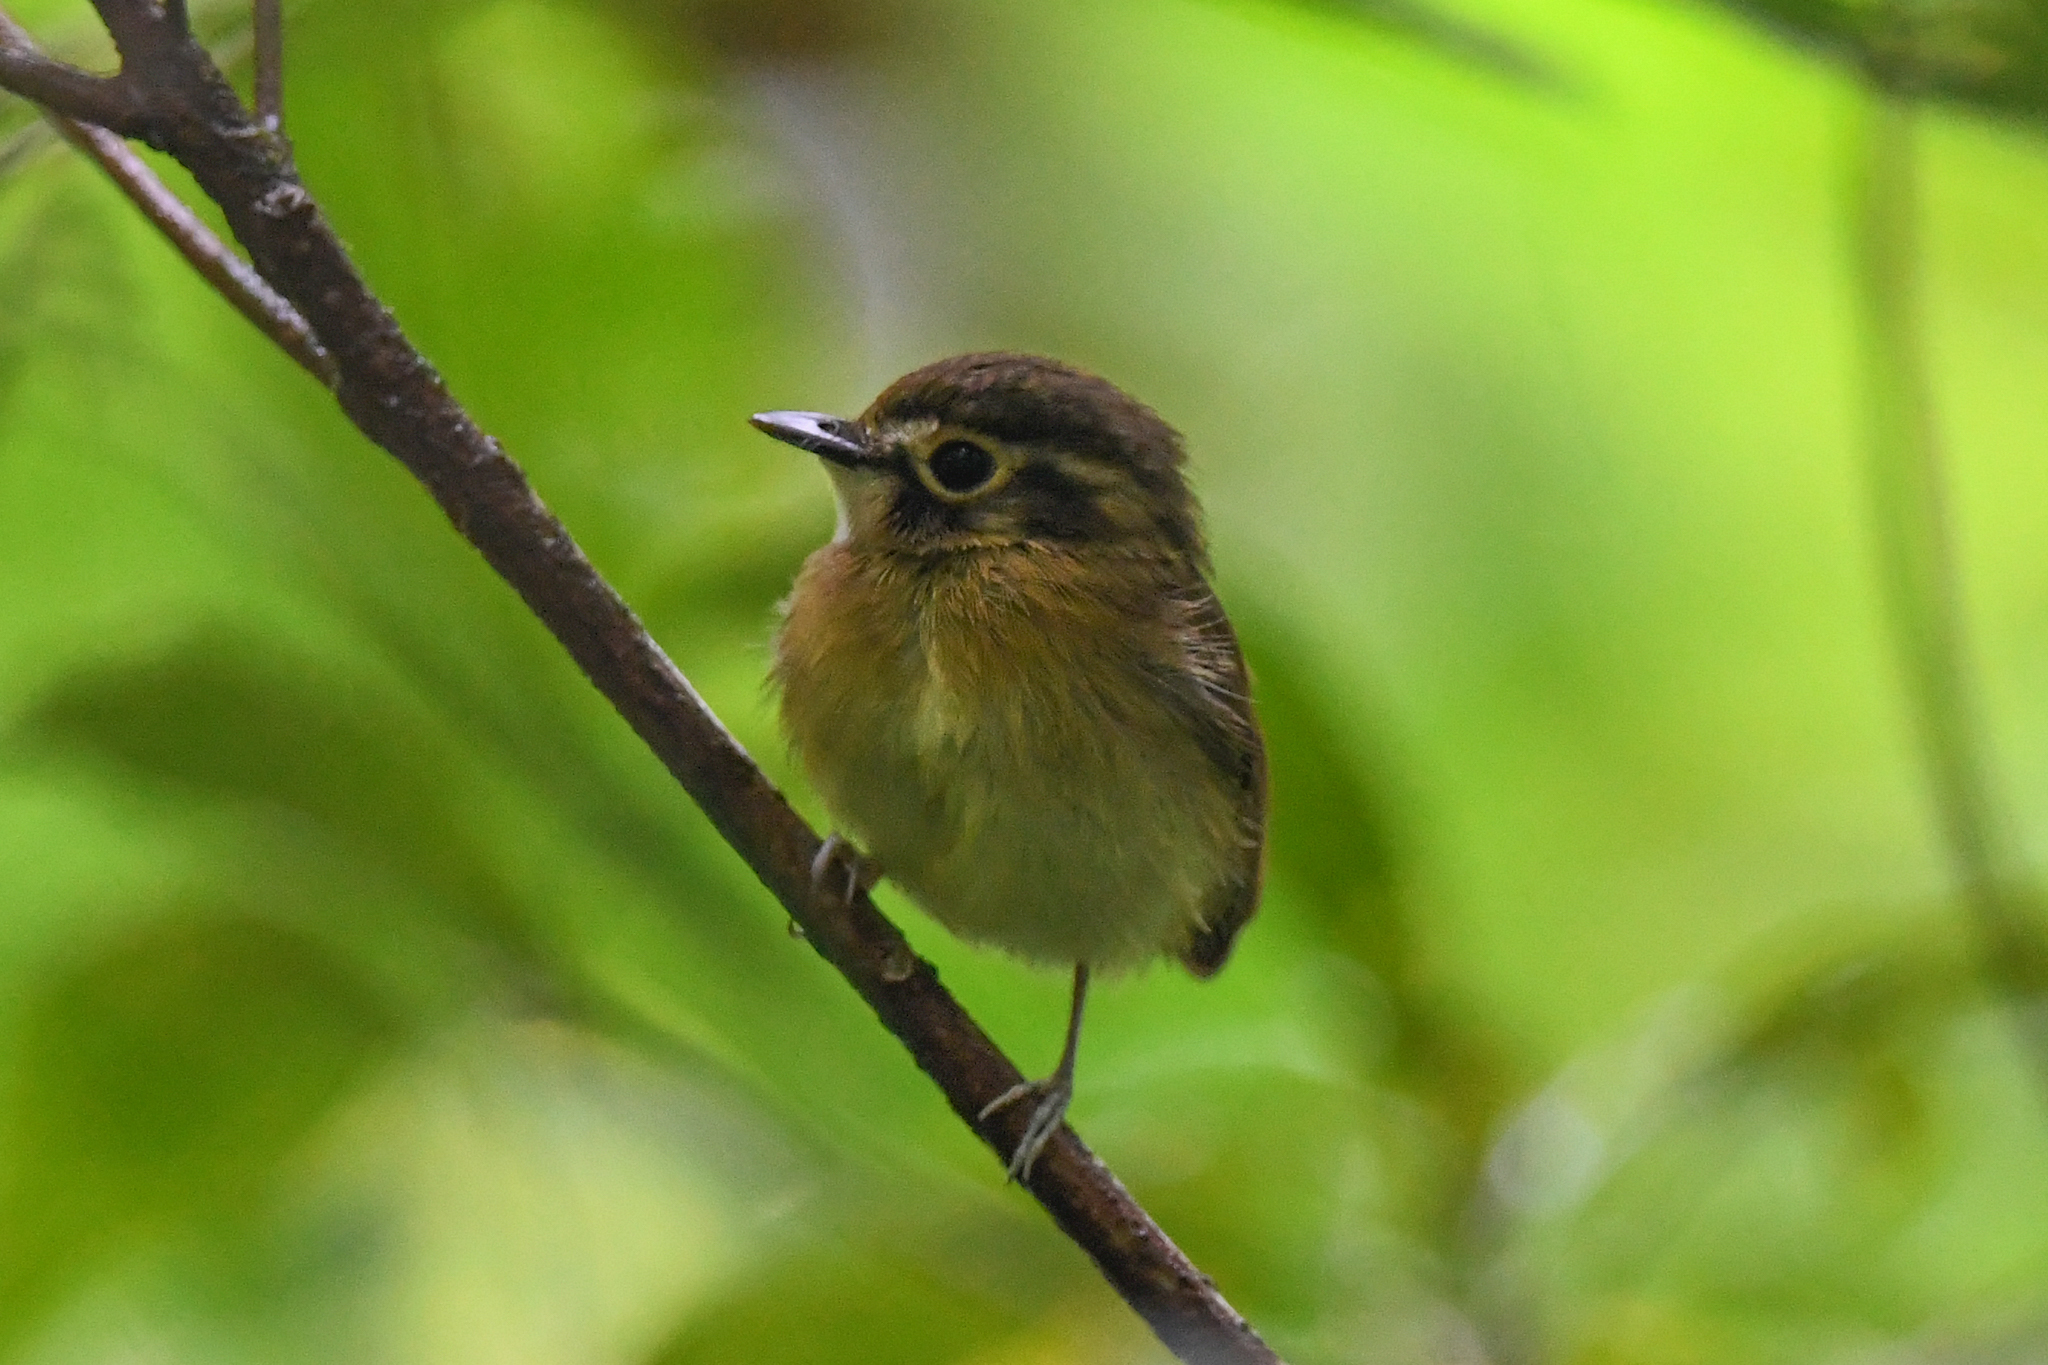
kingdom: Animalia
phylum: Chordata
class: Aves
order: Passeriformes
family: Tyrannidae
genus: Platyrinchus
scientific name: Platyrinchus mystaceus
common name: White-throated spadebill
